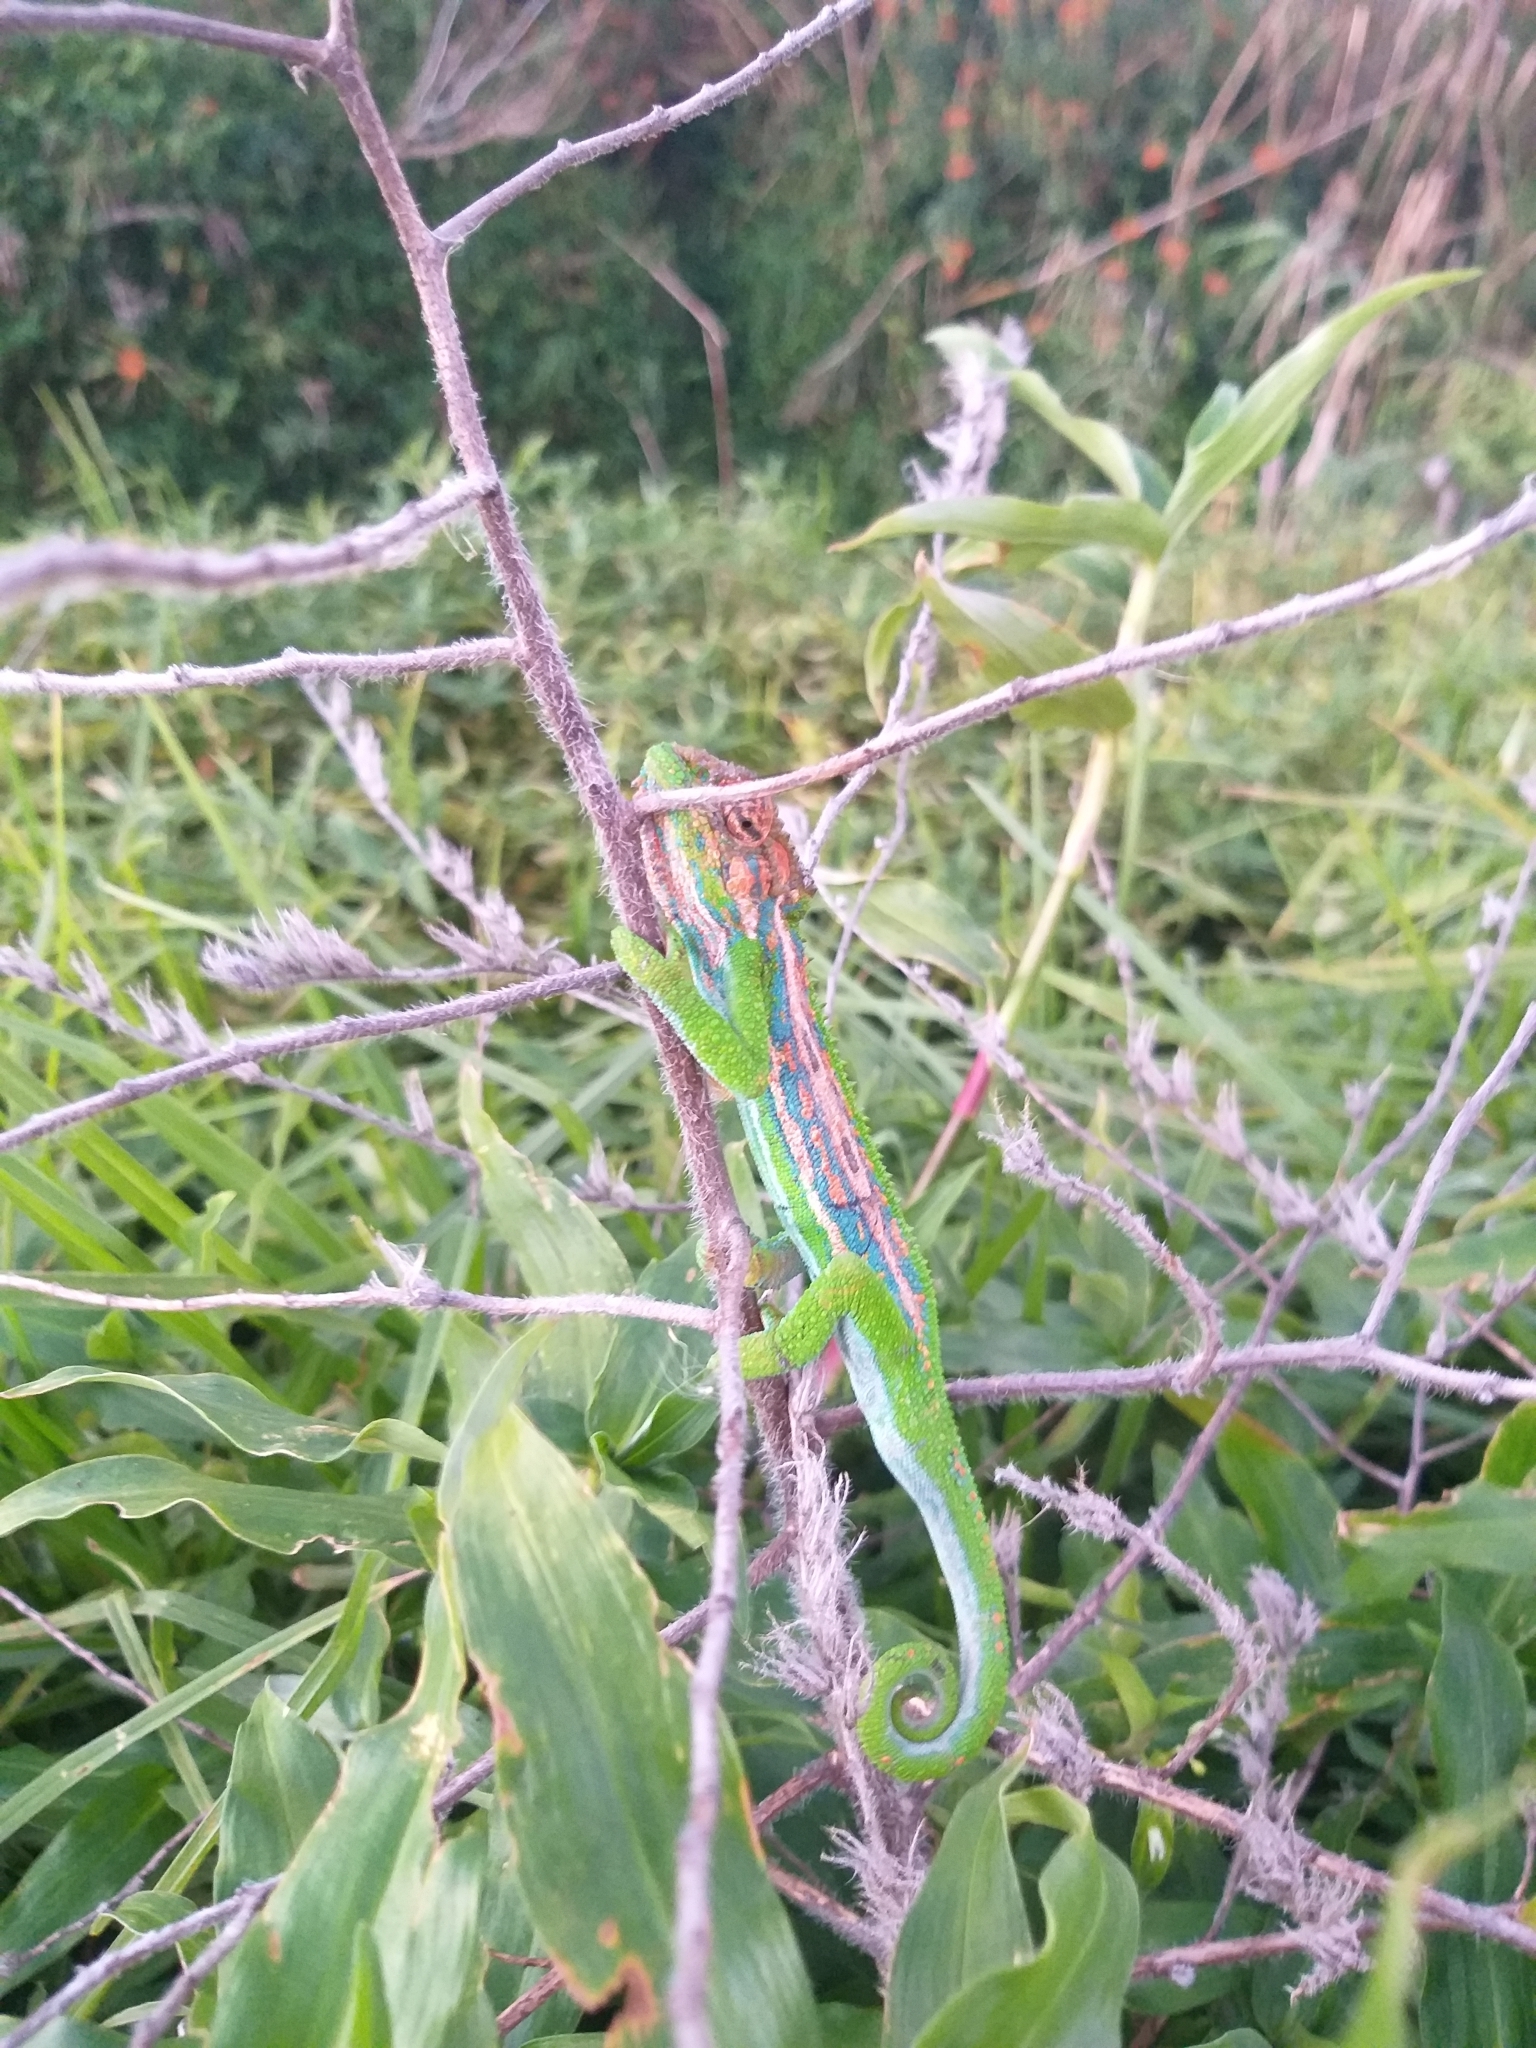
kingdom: Animalia
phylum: Chordata
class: Squamata
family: Chamaeleonidae
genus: Bradypodion
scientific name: Bradypodion pumilum
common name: Cape dwarf chameleon
